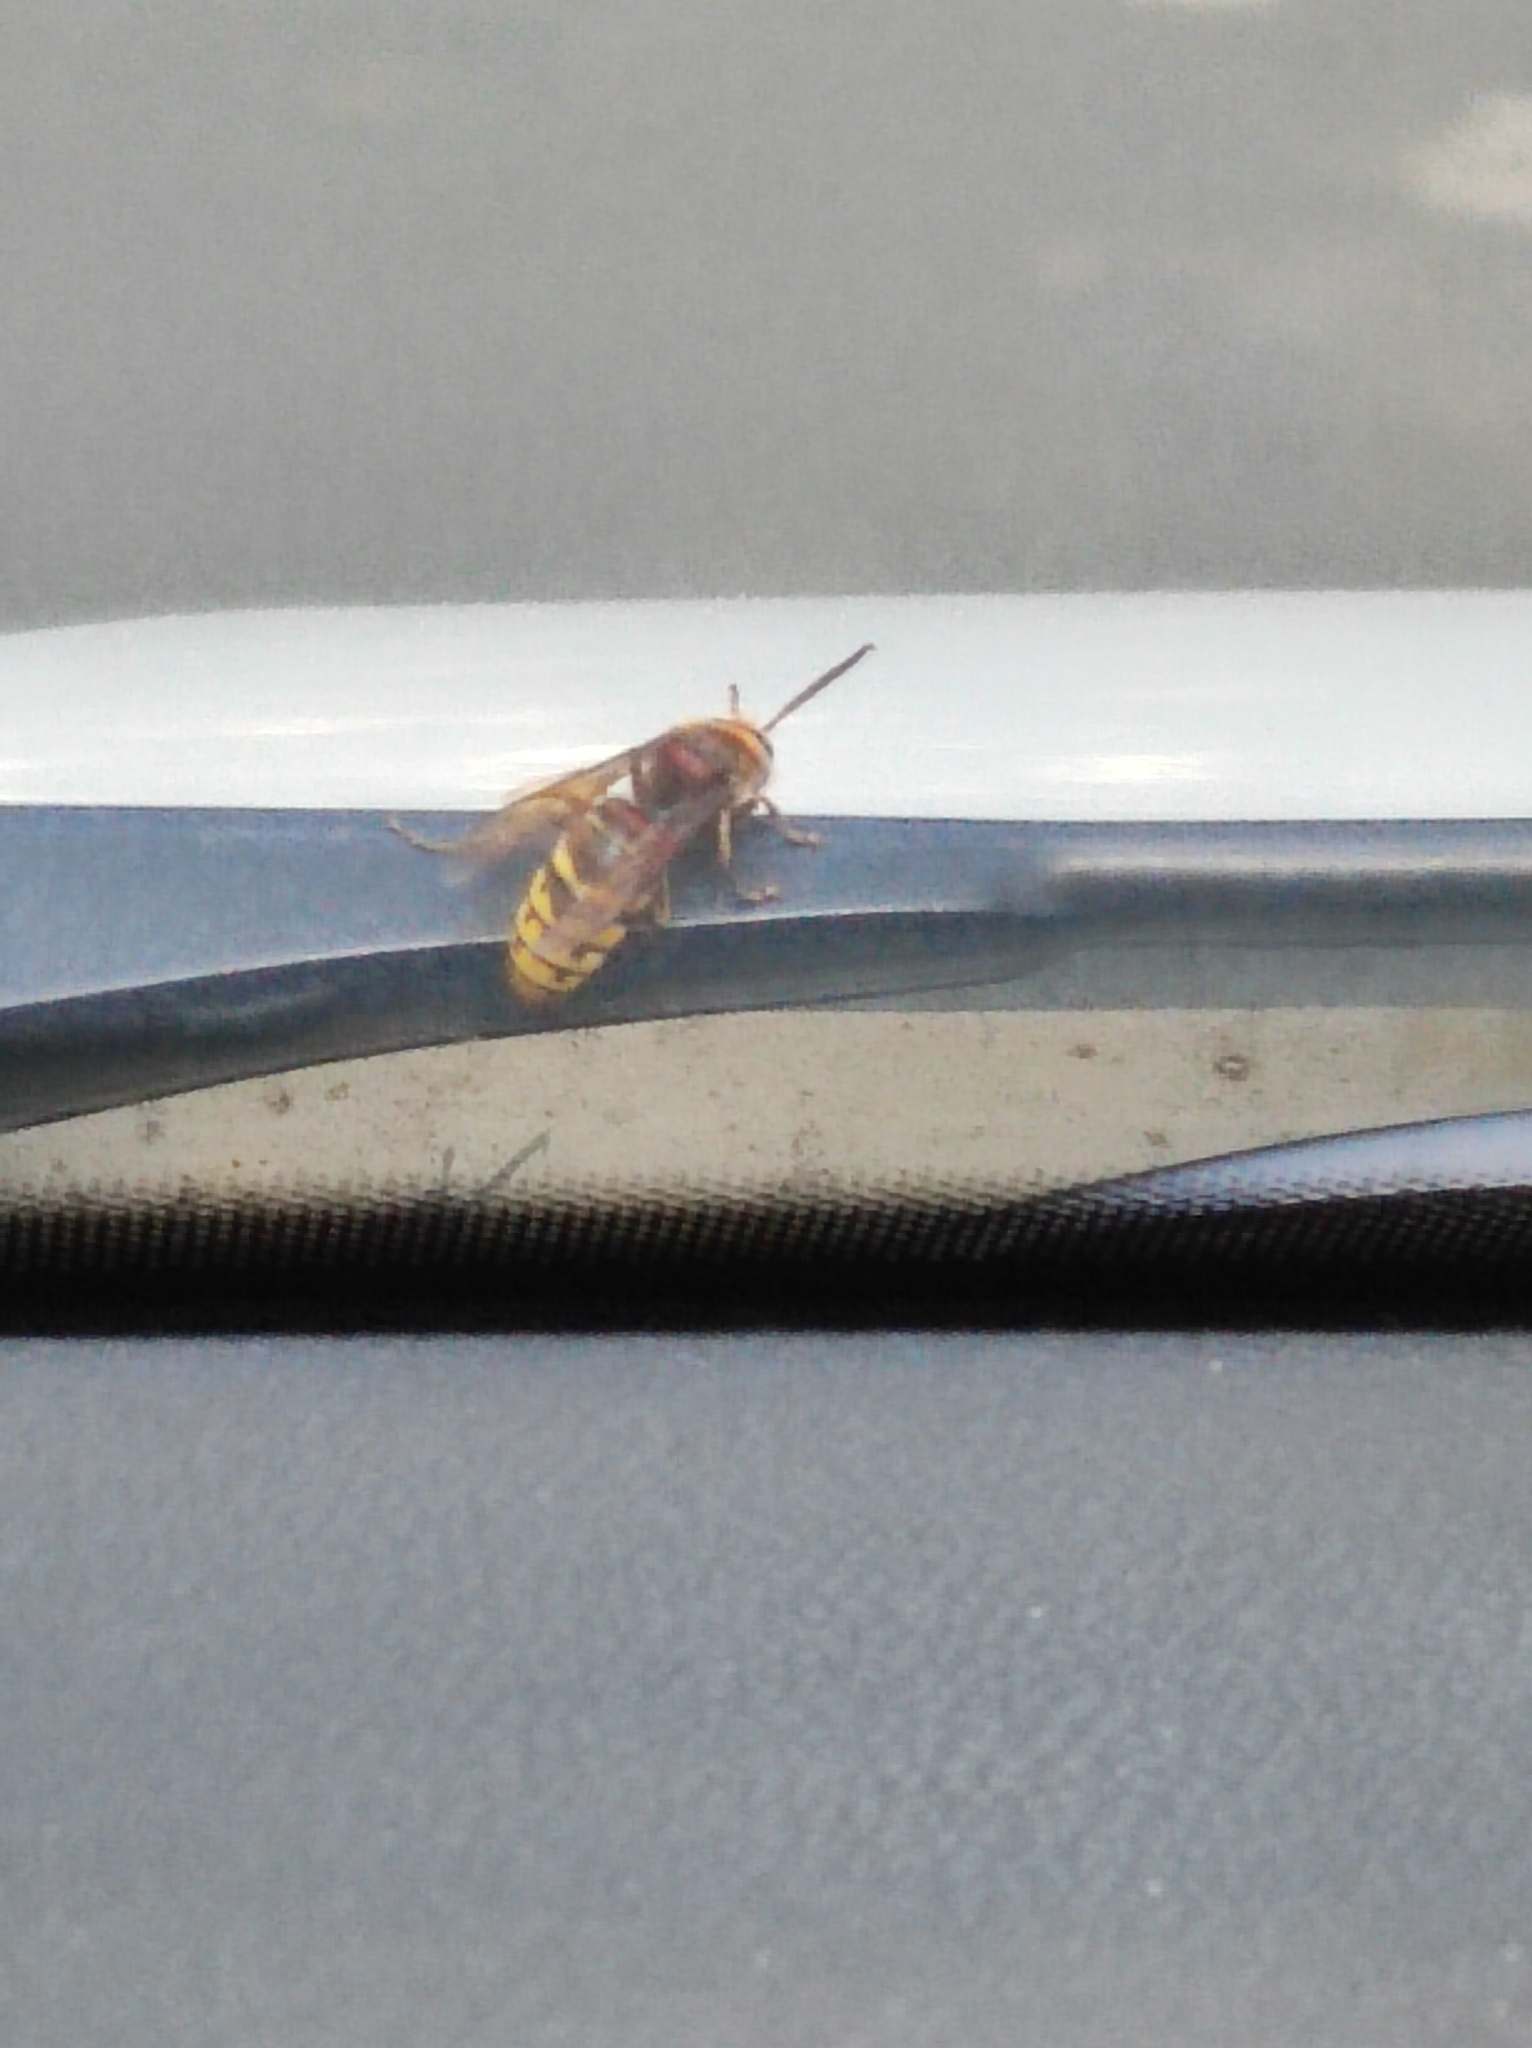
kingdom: Animalia
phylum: Arthropoda
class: Insecta
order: Hymenoptera
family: Vespidae
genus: Vespa
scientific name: Vespa crabro
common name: Hornet
